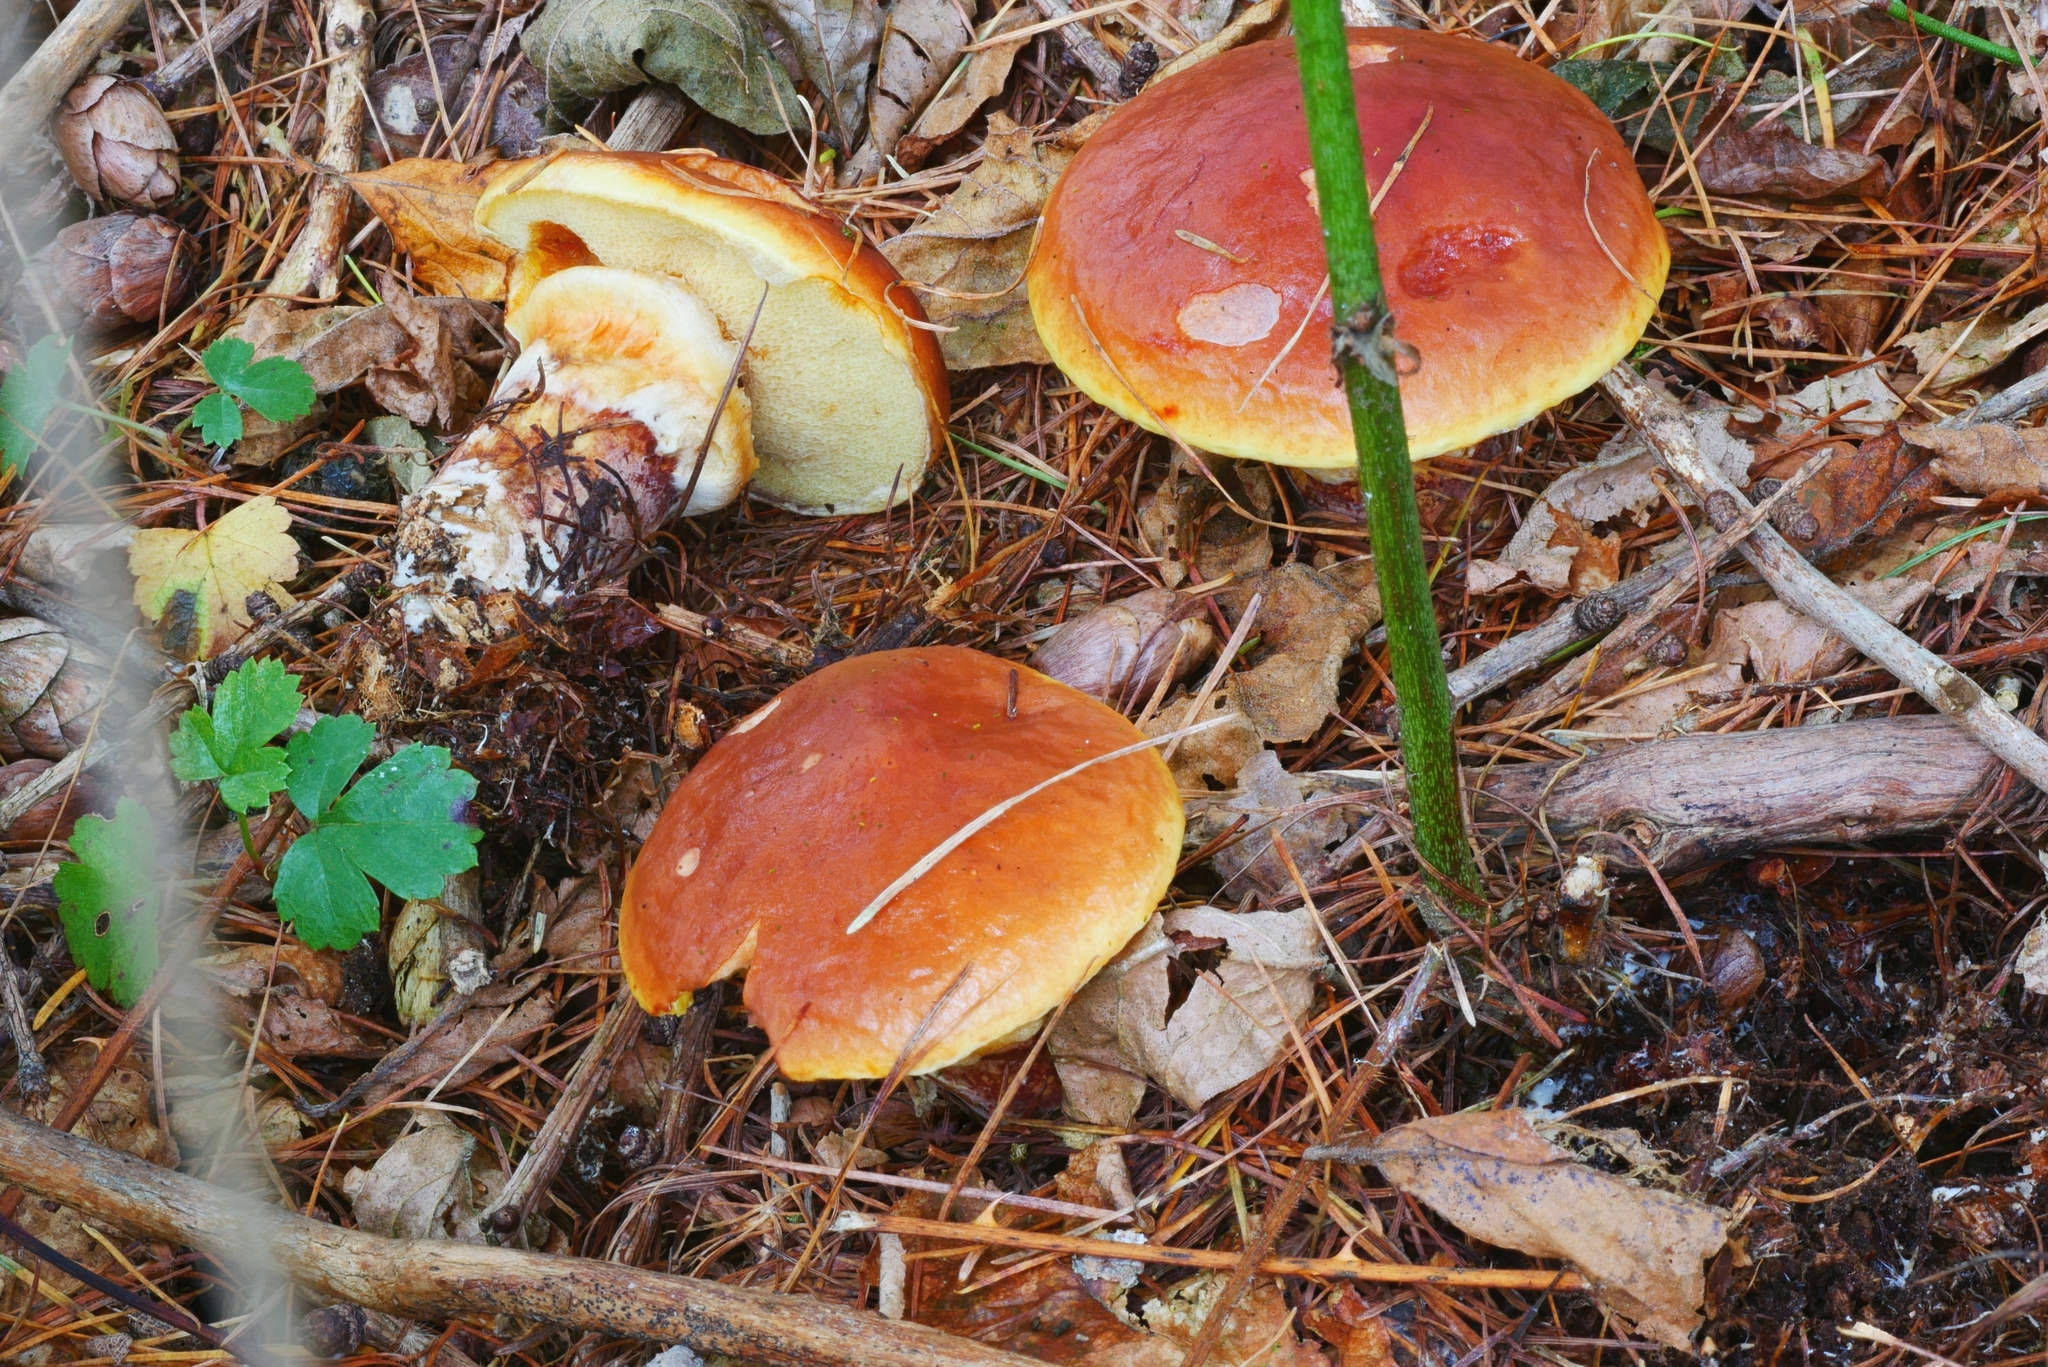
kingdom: Fungi
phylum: Basidiomycota
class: Agaricomycetes
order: Boletales
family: Suillaceae
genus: Suillus
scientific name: Suillus grevillei
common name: Larch bolete
